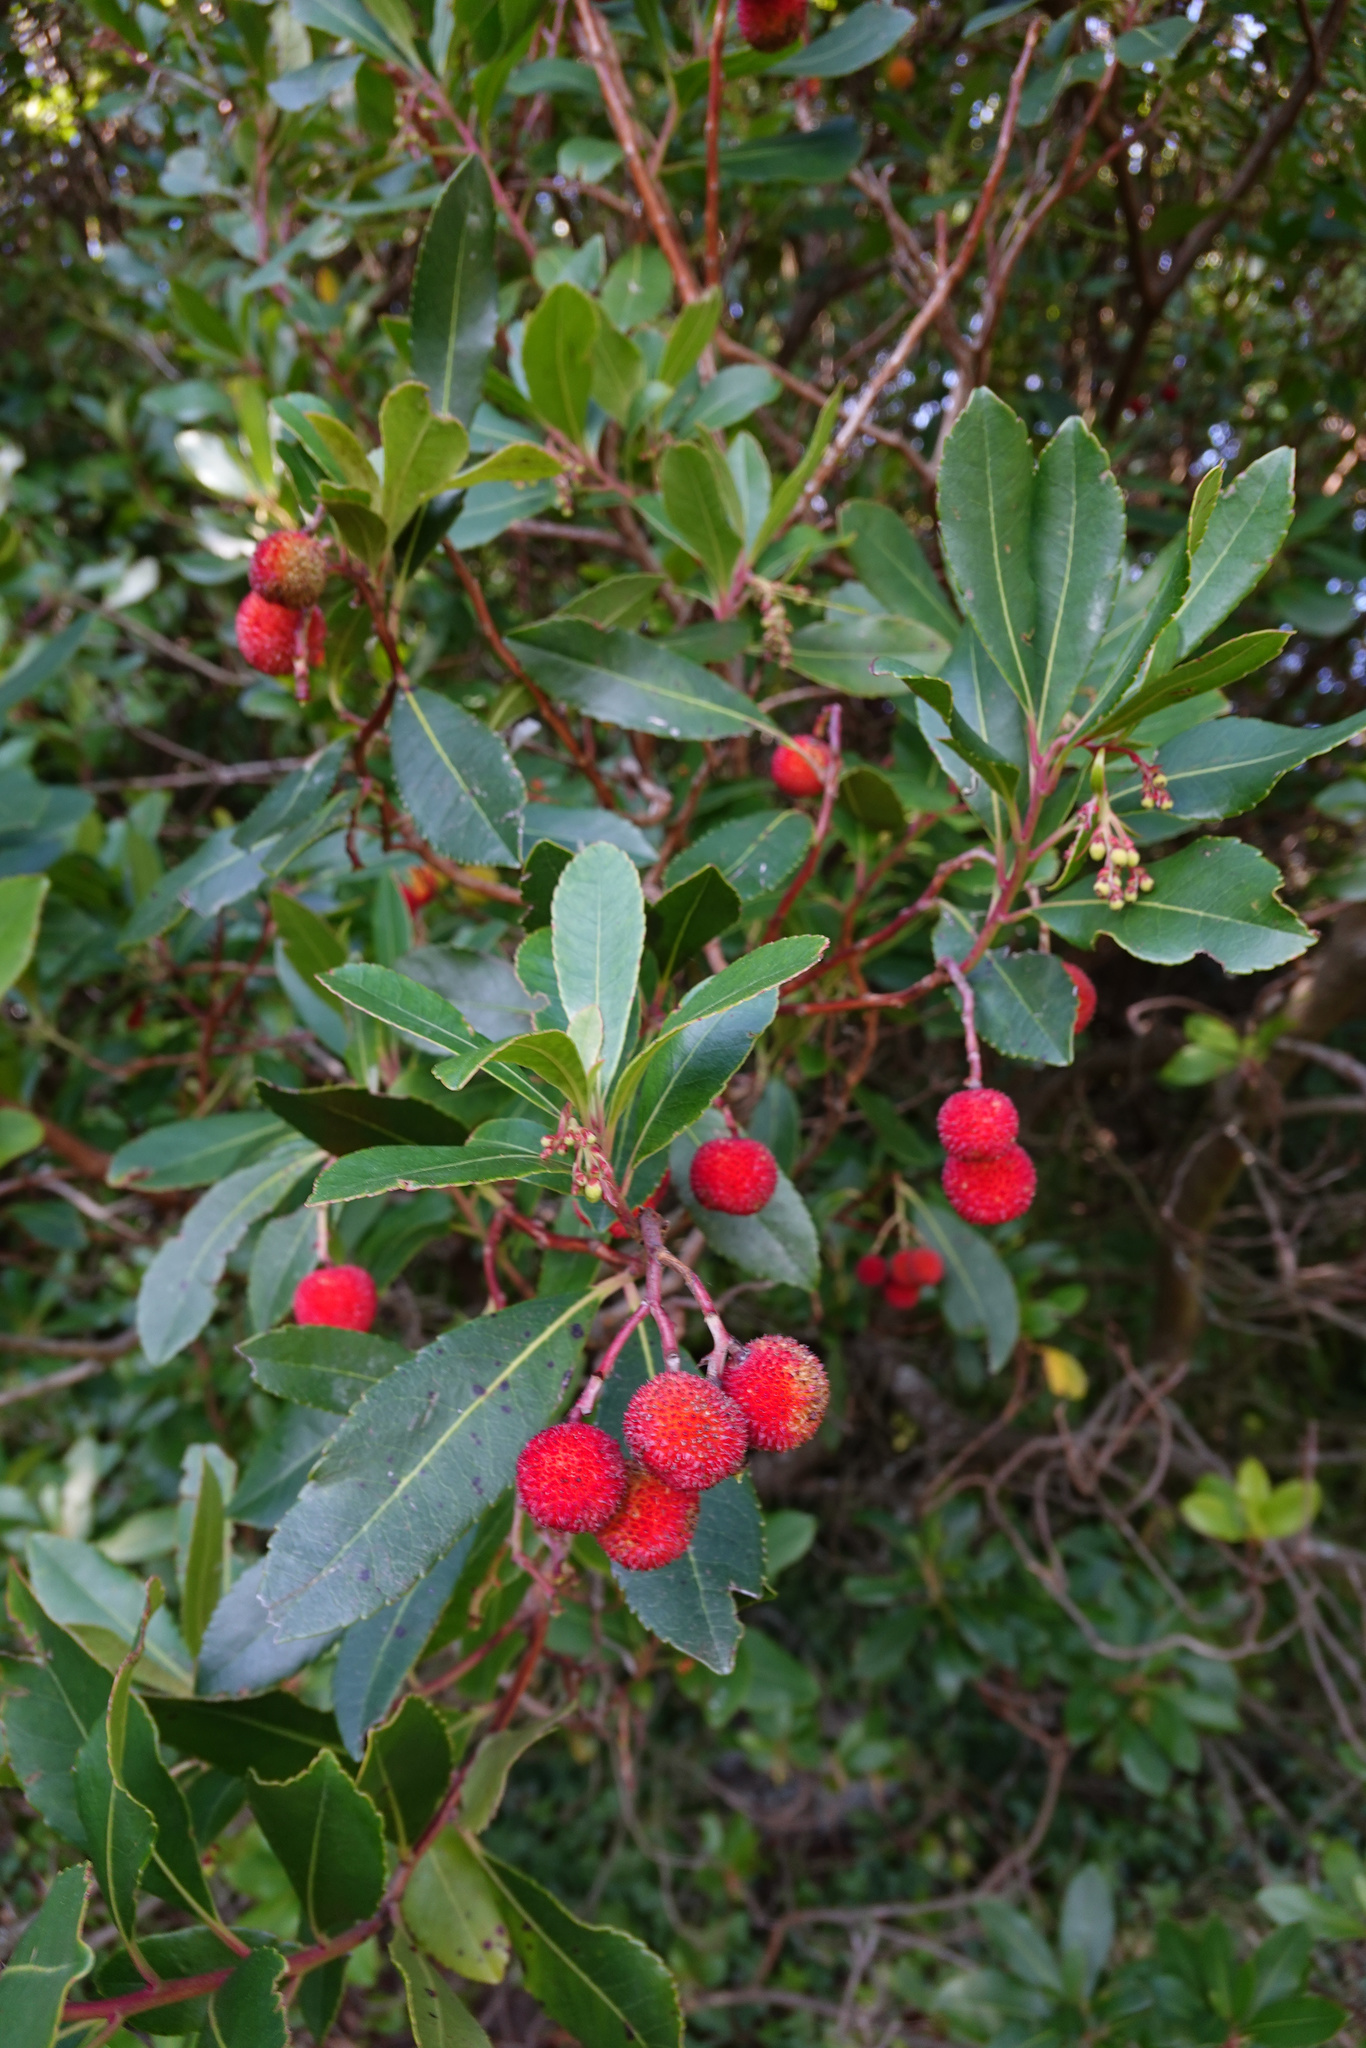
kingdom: Plantae
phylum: Tracheophyta
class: Magnoliopsida
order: Ericales
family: Ericaceae
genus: Arbutus
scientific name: Arbutus unedo
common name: Strawberry-tree
